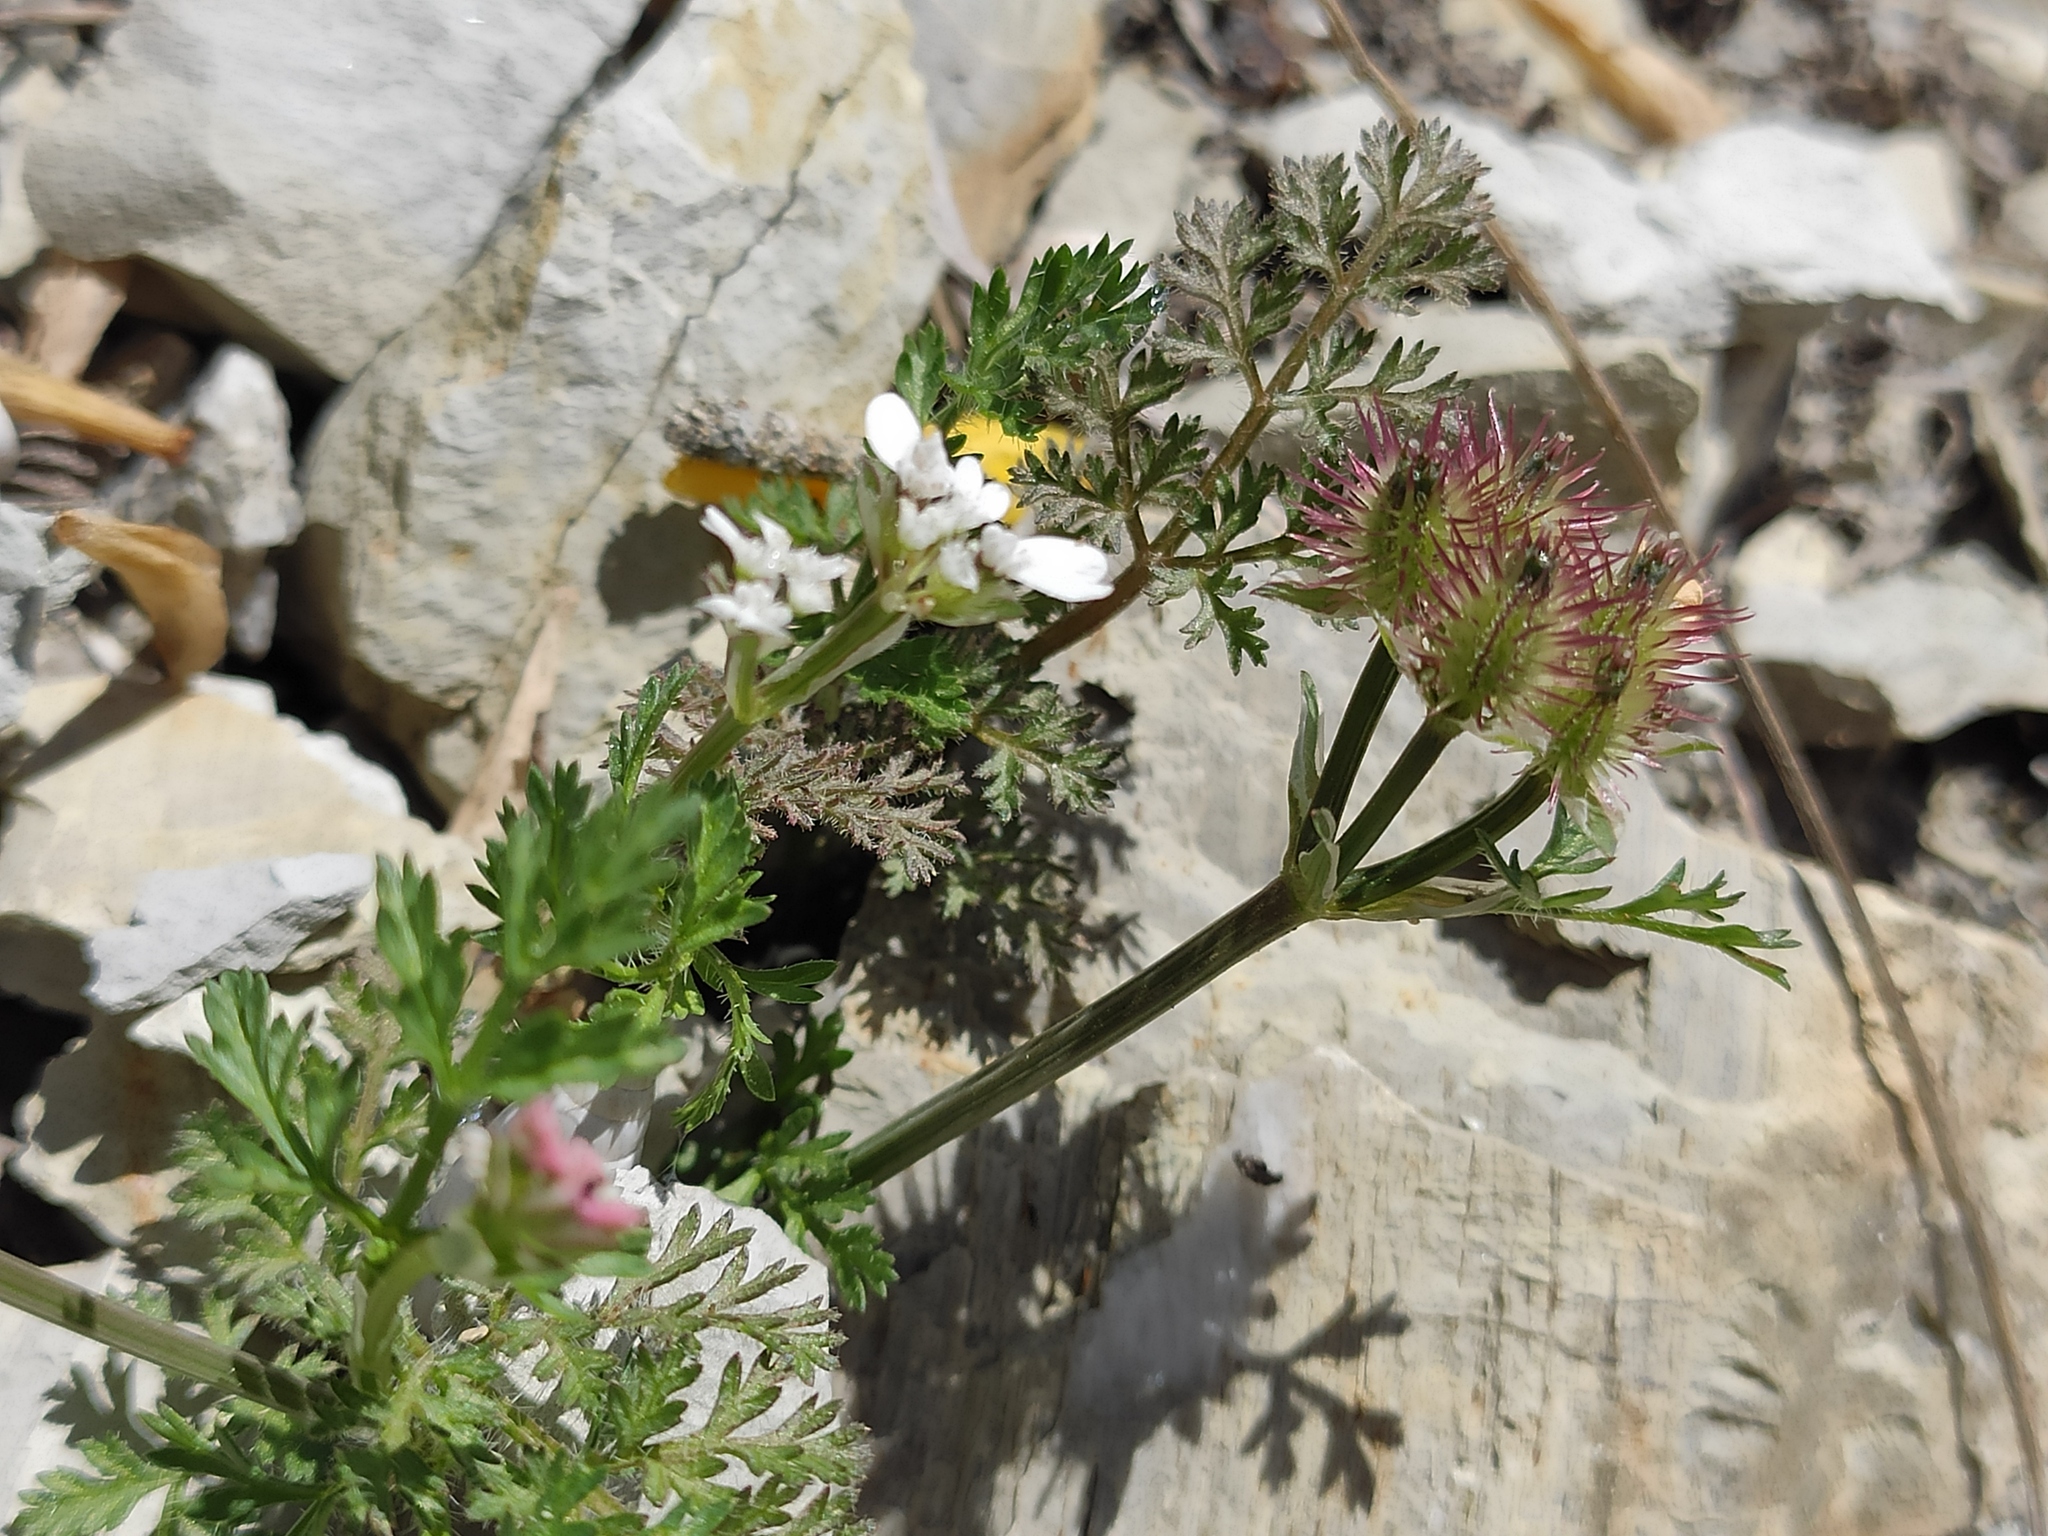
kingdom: Plantae
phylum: Tracheophyta
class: Magnoliopsida
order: Apiales
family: Apiaceae
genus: Orlaya
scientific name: Orlaya daucoides
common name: Flat-fruit orlaya
